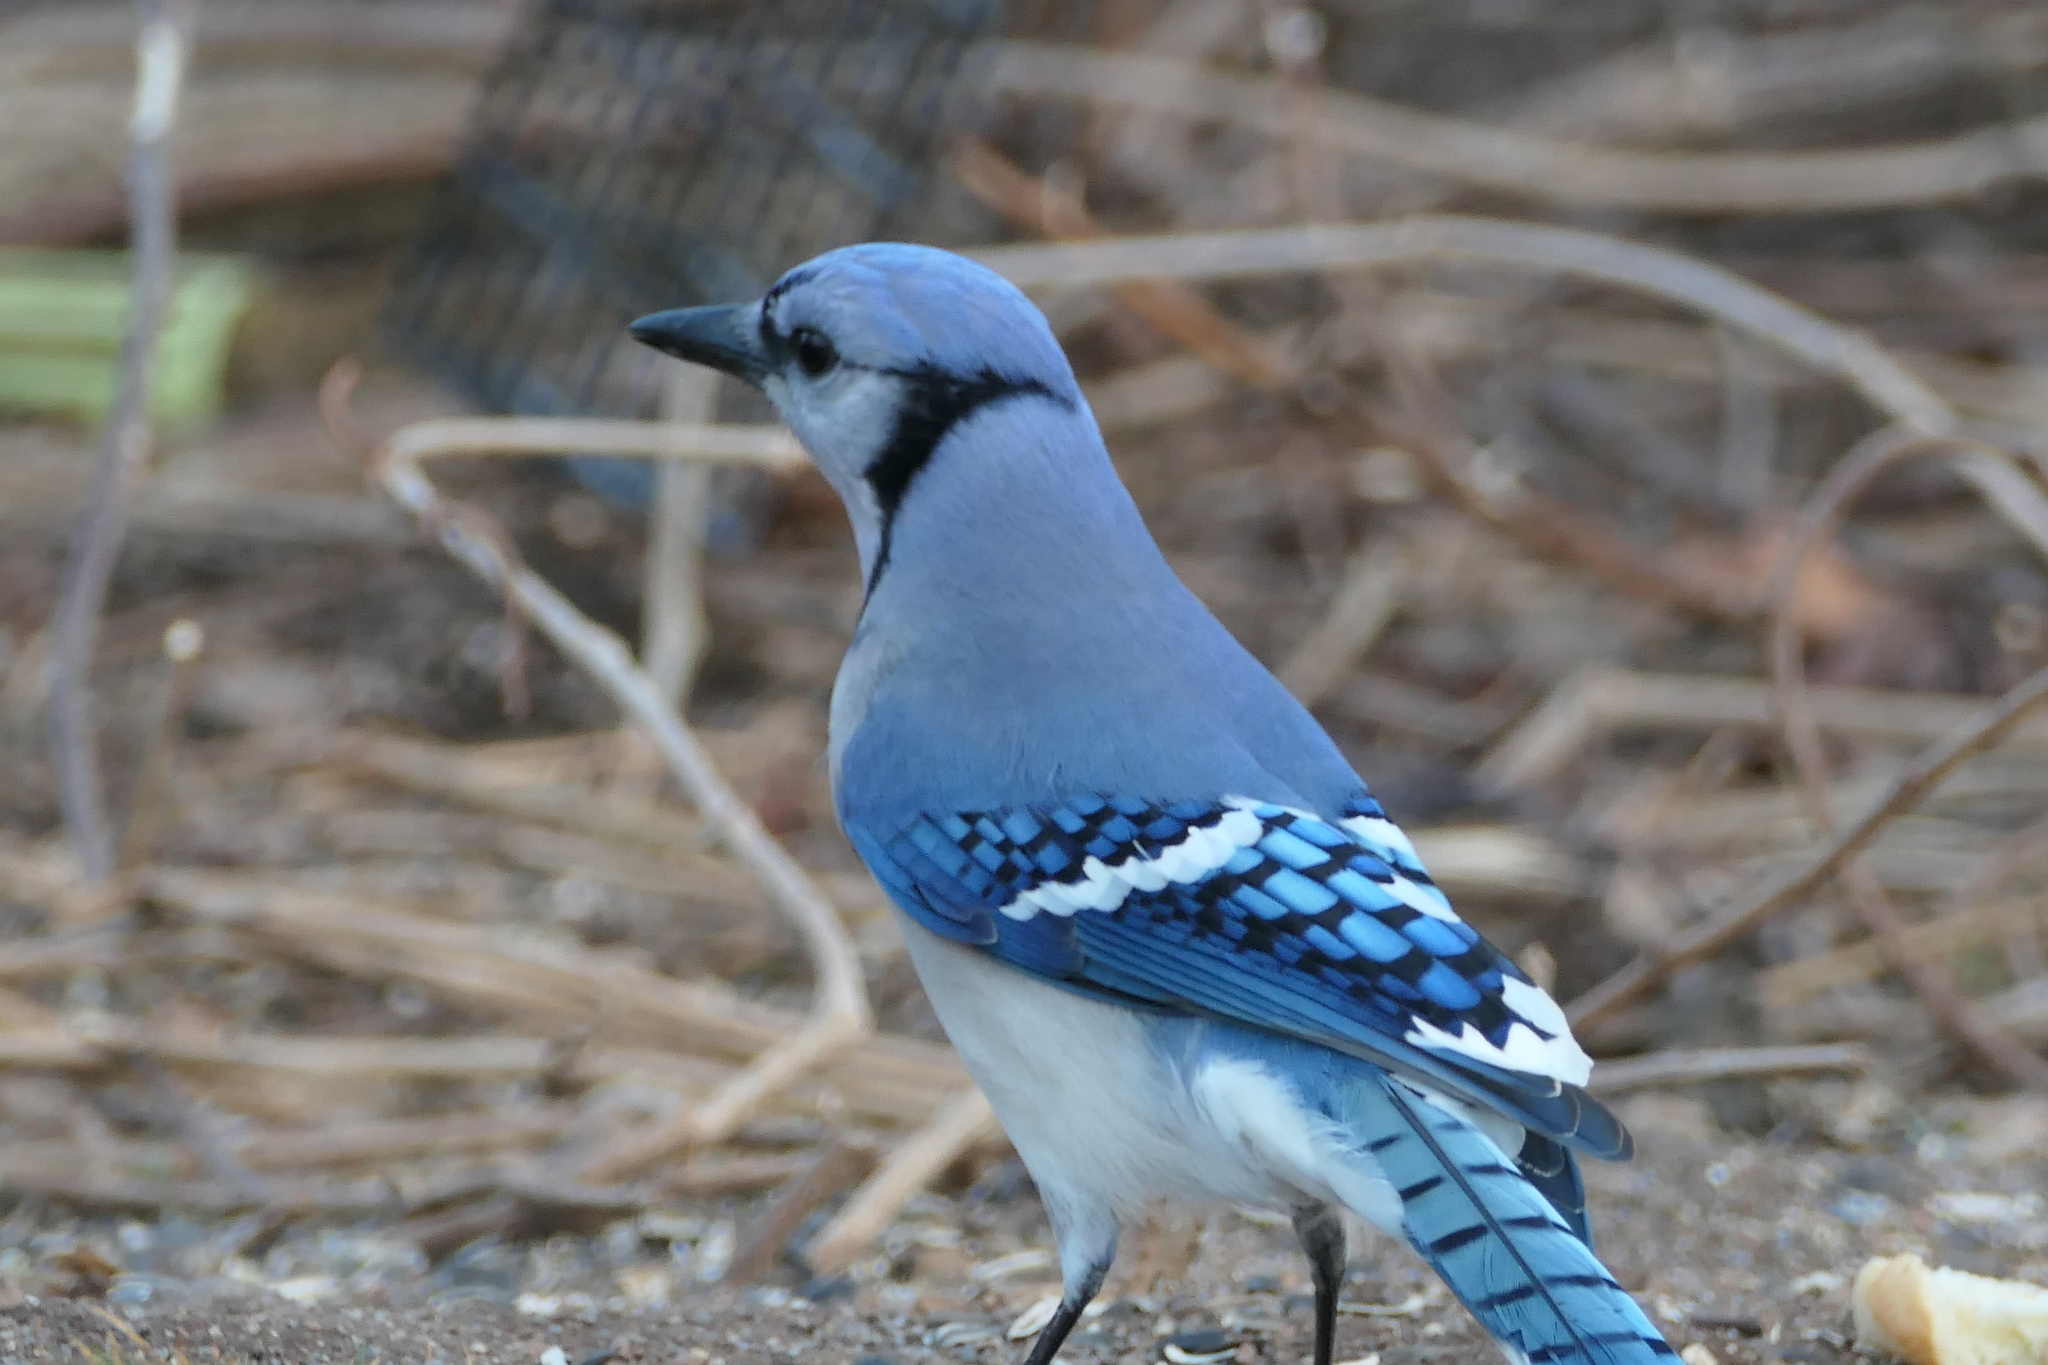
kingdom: Animalia
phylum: Chordata
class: Aves
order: Passeriformes
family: Corvidae
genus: Cyanocitta
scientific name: Cyanocitta cristata
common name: Blue jay
